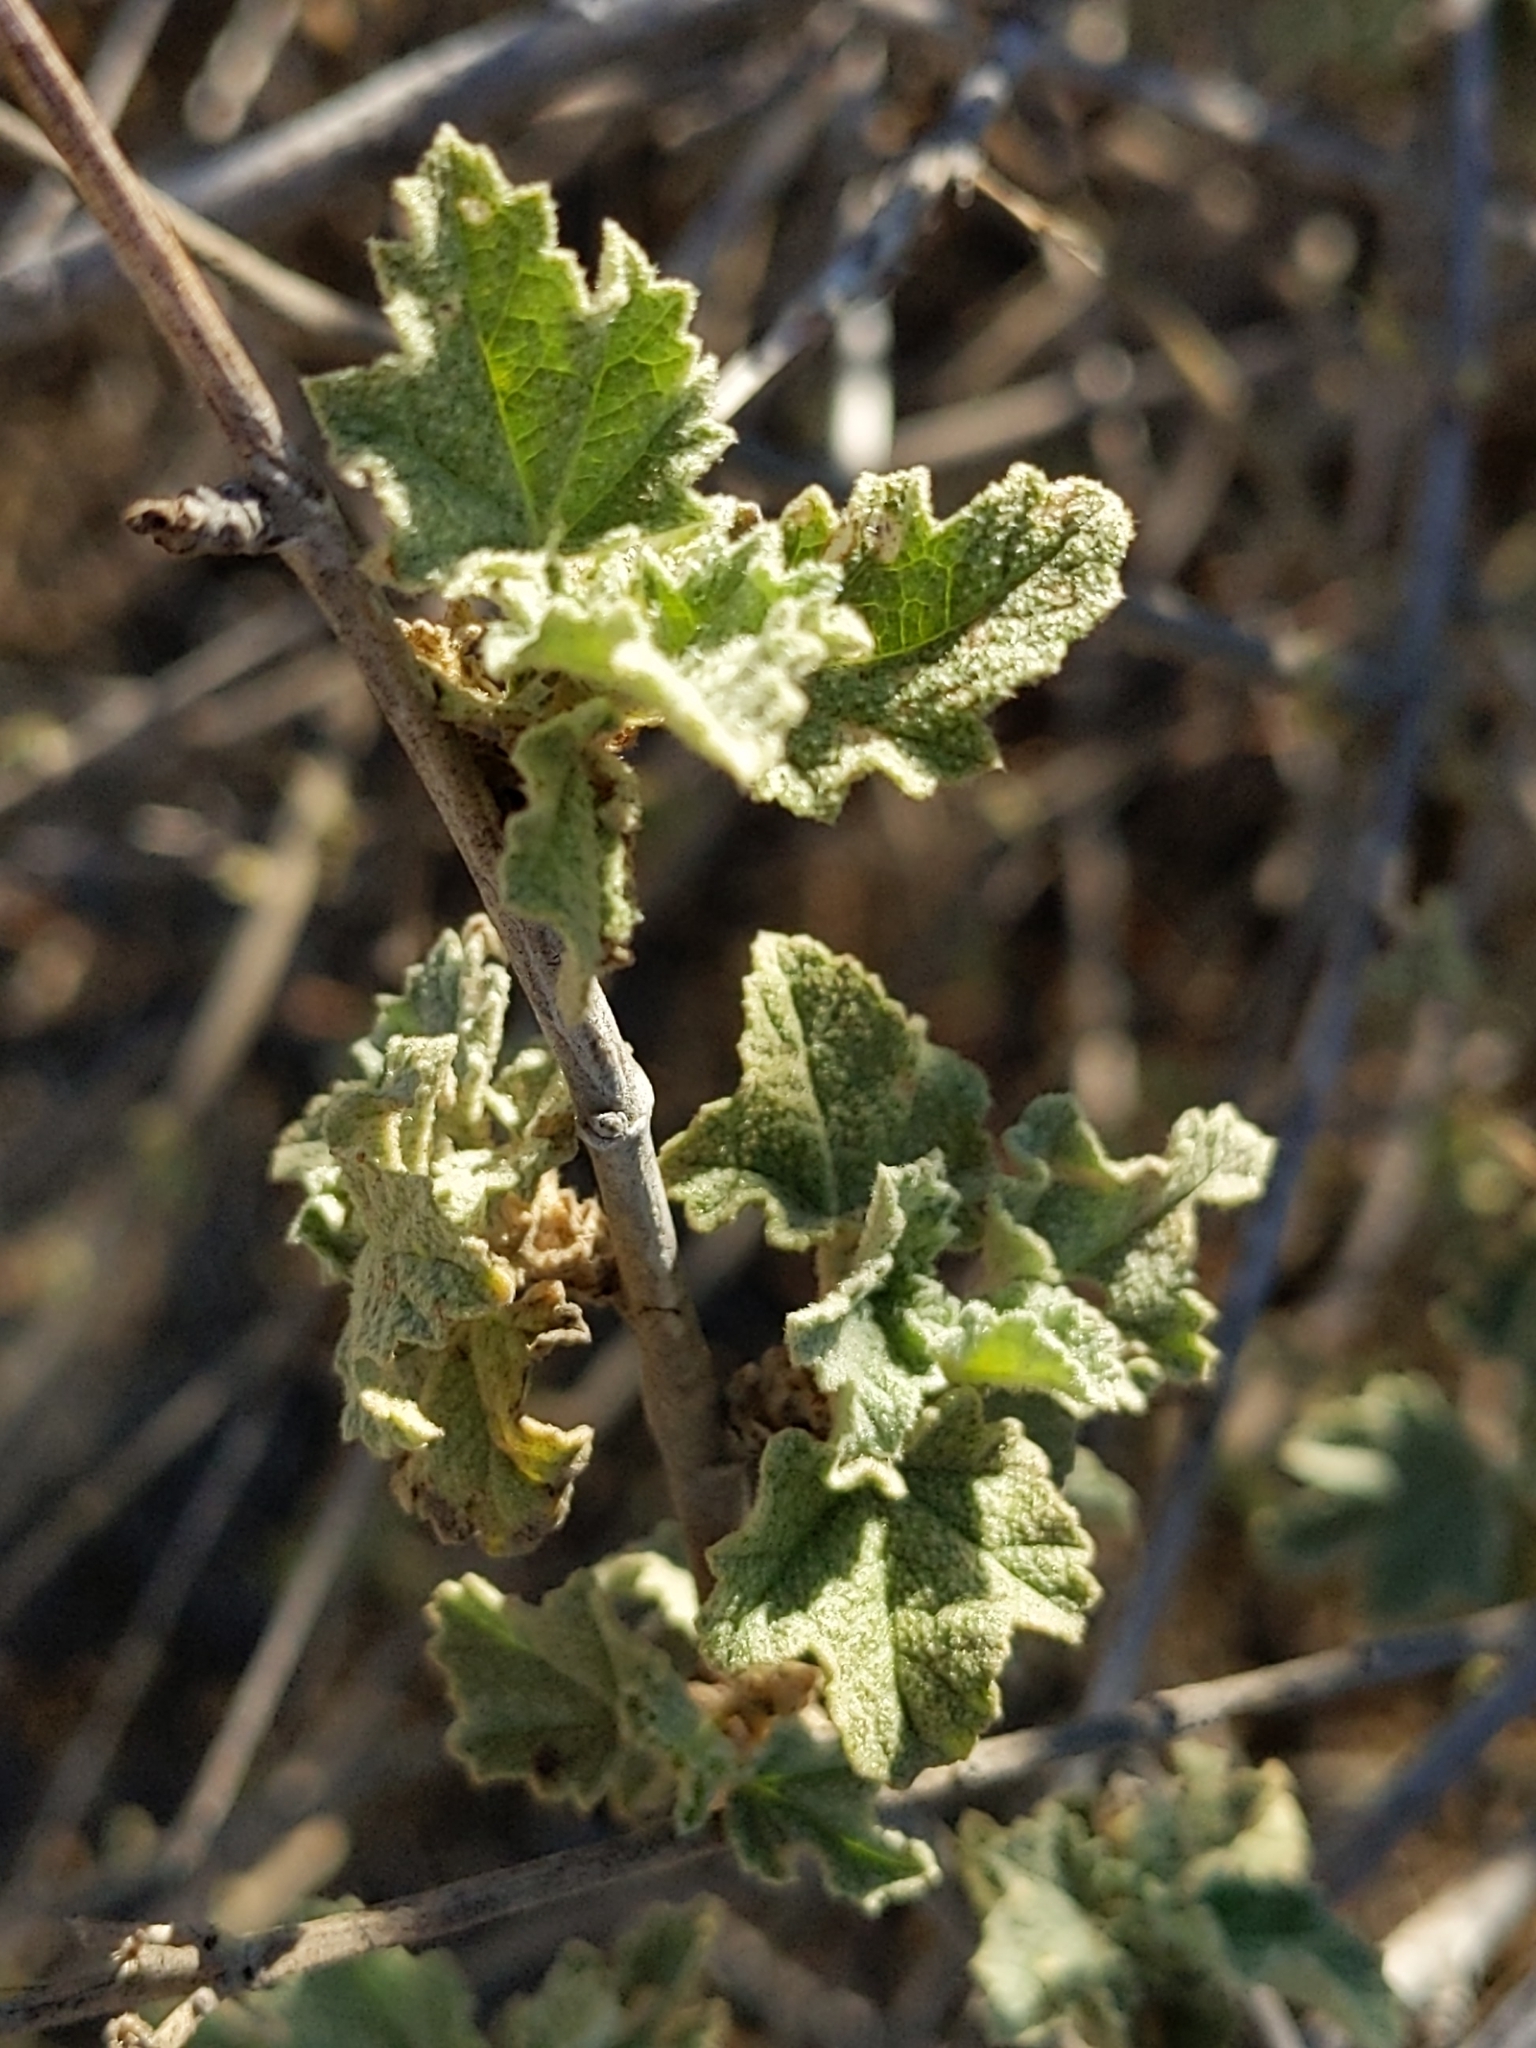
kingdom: Plantae
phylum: Tracheophyta
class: Magnoliopsida
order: Malvales
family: Malvaceae
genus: Malacothamnus
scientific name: Malacothamnus fasciculatus
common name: Sant cruz island bush-mallow
